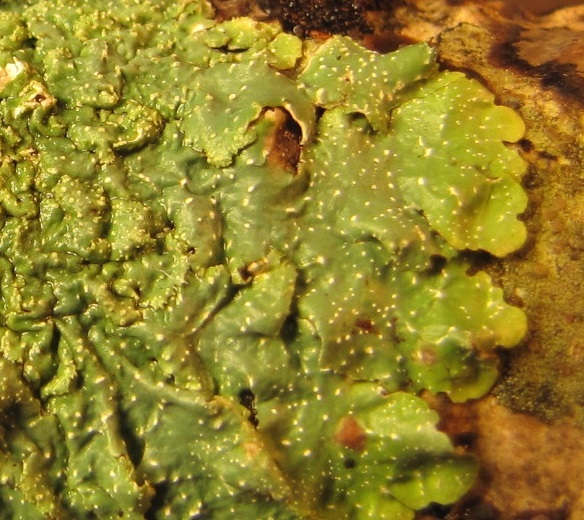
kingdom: Fungi
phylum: Ascomycota
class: Lecanoromycetes
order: Lecanorales
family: Parmeliaceae
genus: Punctelia
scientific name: Punctelia rudecta
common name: Rough speckled shield lichen
